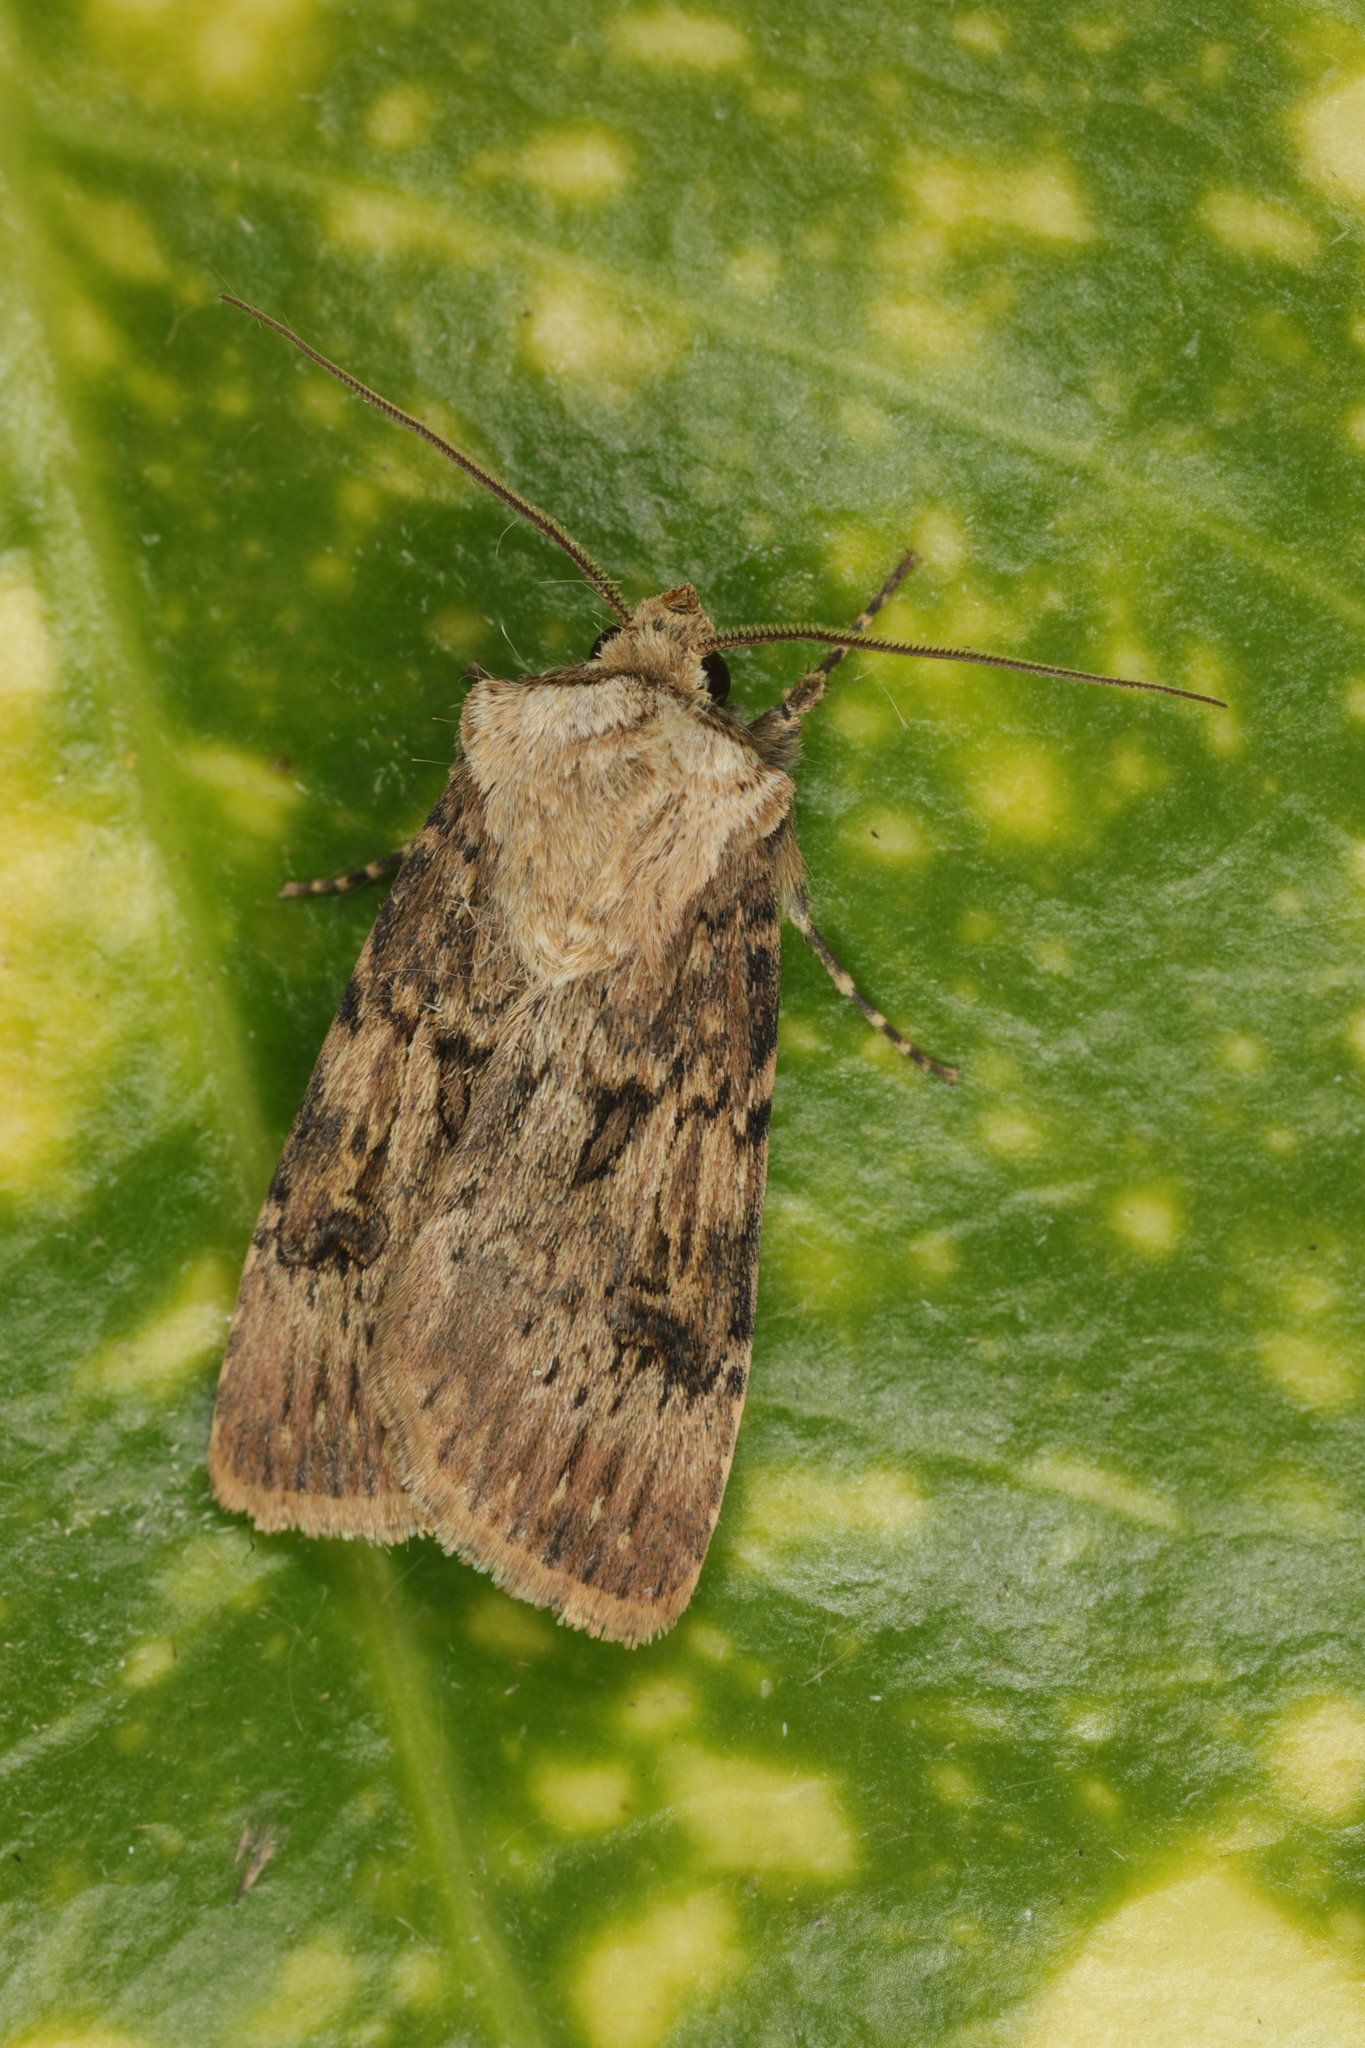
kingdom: Animalia
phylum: Arthropoda
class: Insecta
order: Lepidoptera
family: Noctuidae
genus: Agrotis
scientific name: Agrotis puta
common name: Shuttle-shaped dart
